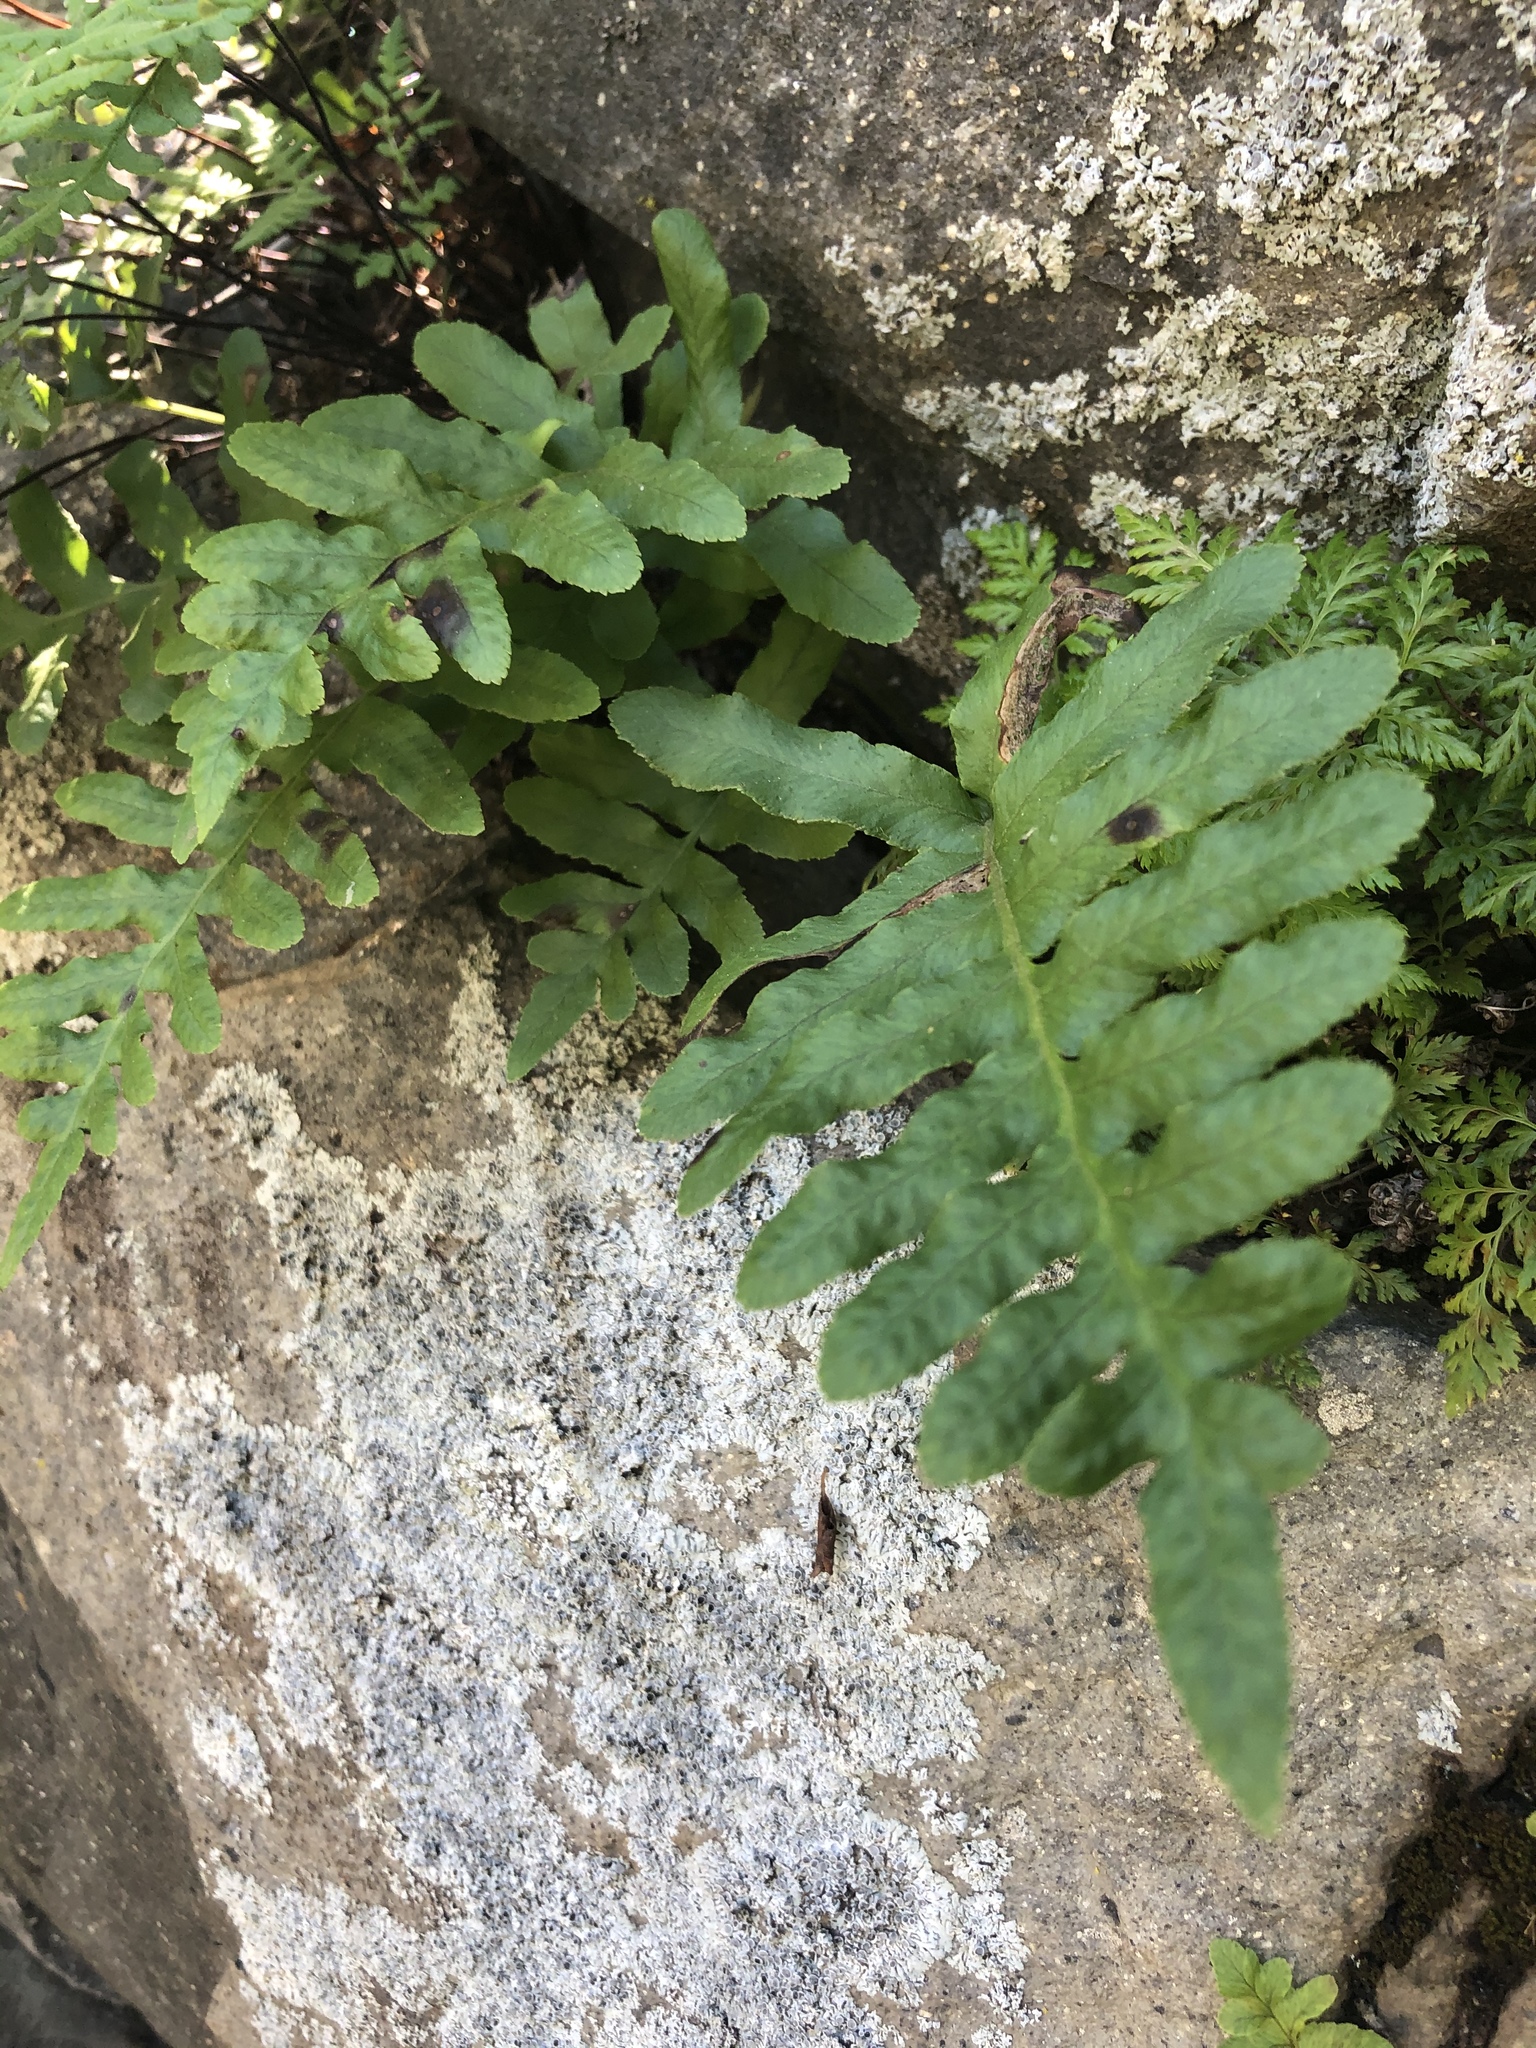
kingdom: Plantae
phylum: Tracheophyta
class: Polypodiopsida
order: Polypodiales
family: Polypodiaceae
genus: Polypodium
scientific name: Polypodium californicum
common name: California polypody
